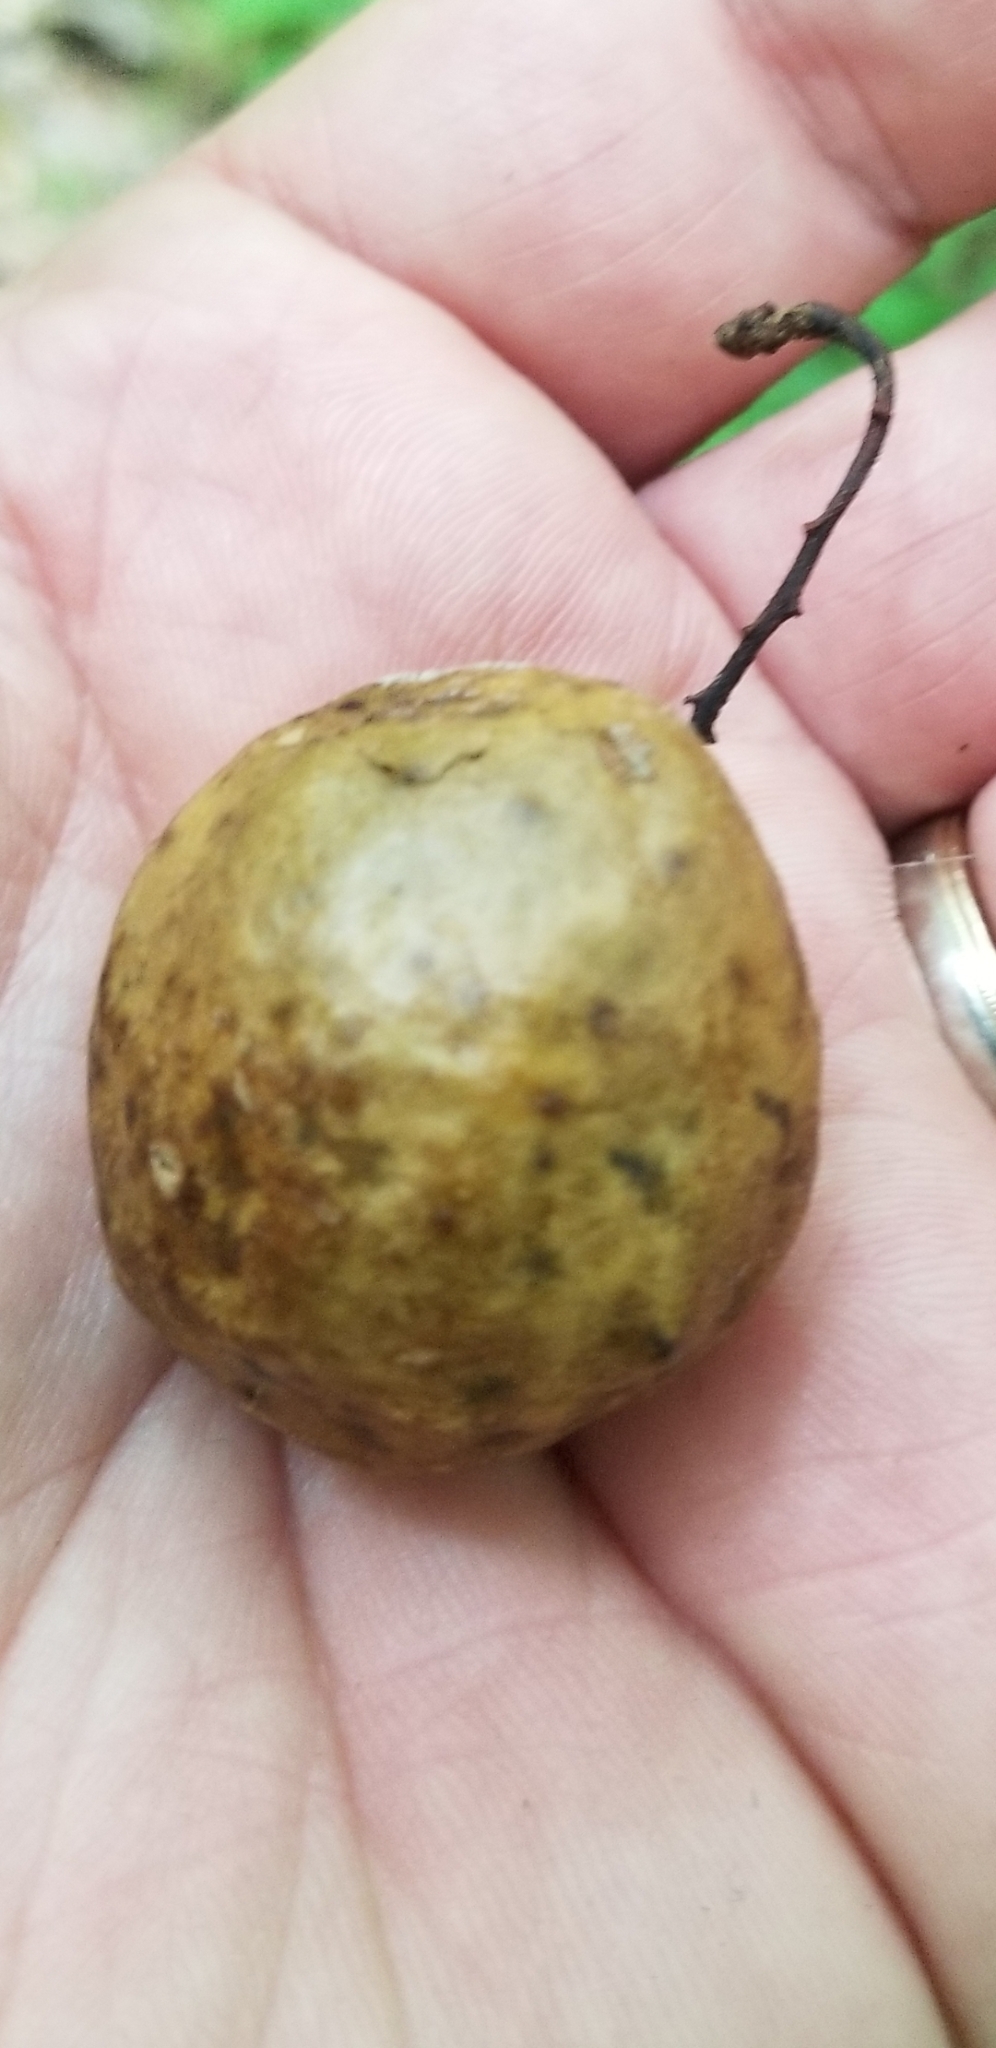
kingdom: Animalia
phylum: Arthropoda
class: Insecta
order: Hymenoptera
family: Cynipidae
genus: Amphibolips
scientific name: Amphibolips
